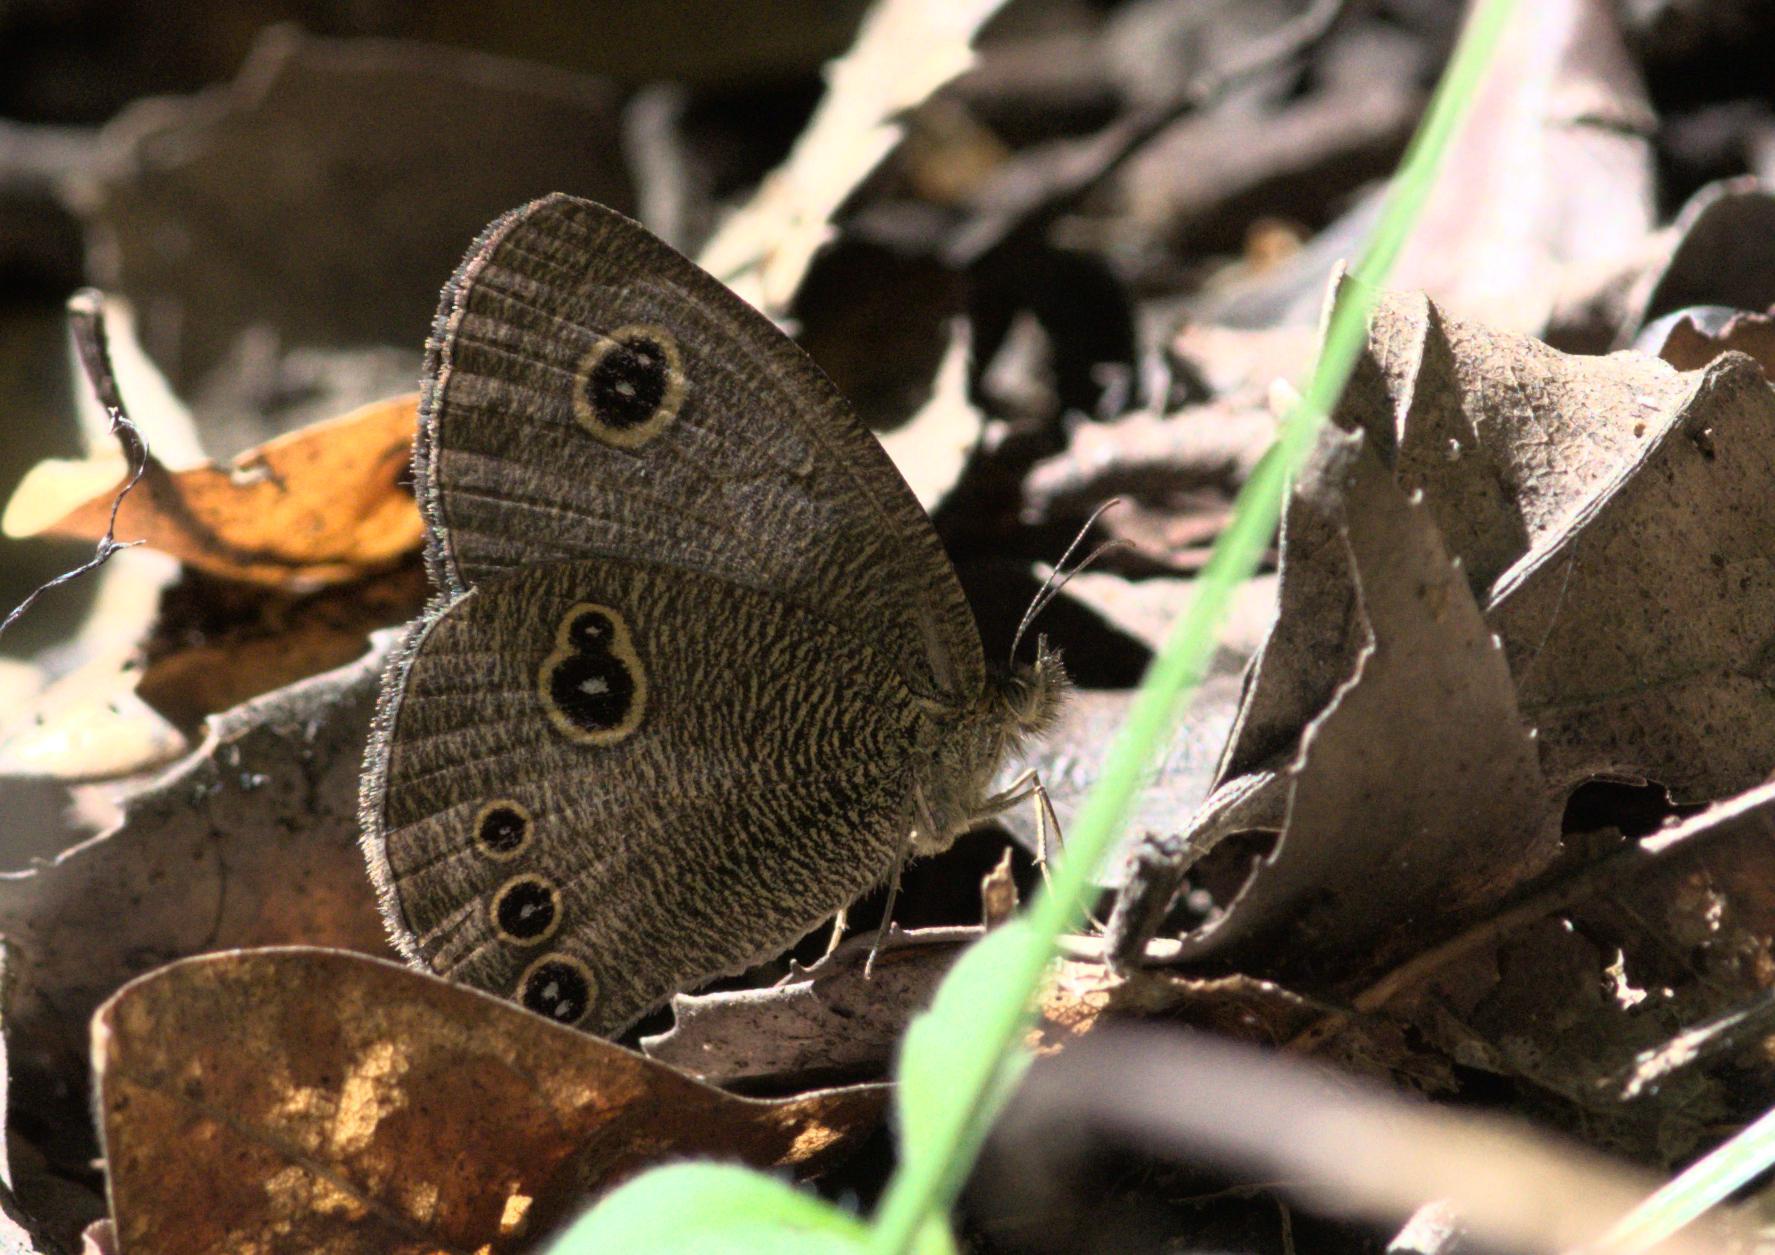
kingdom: Animalia
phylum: Arthropoda
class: Insecta
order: Lepidoptera
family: Nymphalidae
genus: Ypthima
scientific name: Ypthima nikaea
